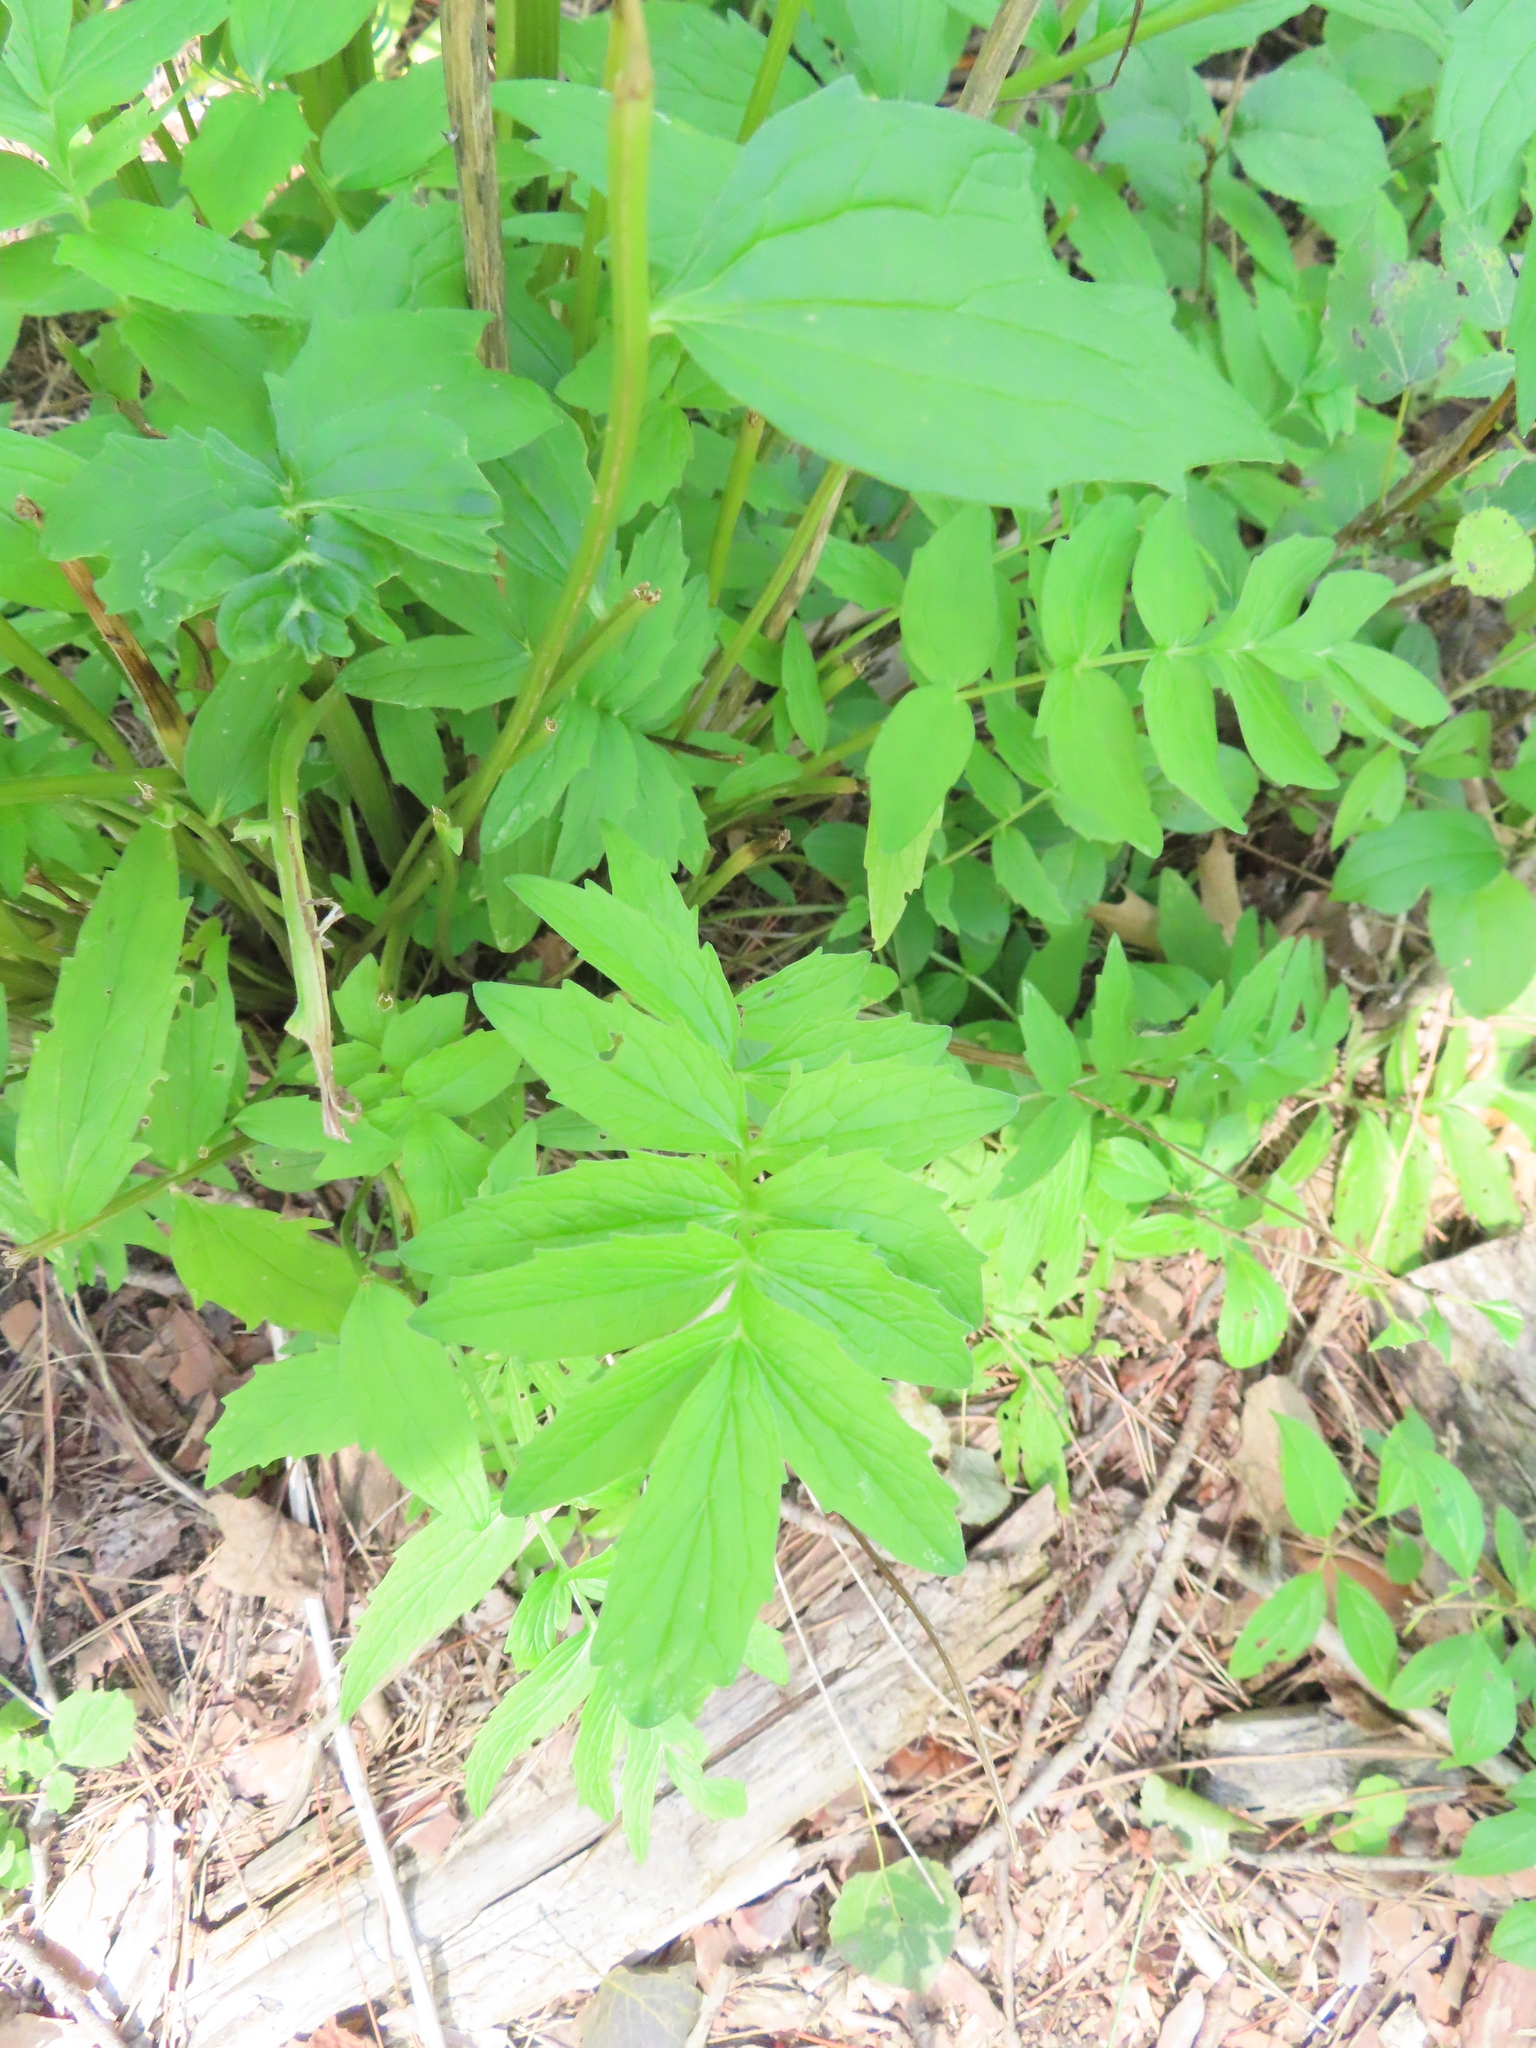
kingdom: Plantae
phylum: Tracheophyta
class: Magnoliopsida
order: Dipsacales
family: Caprifoliaceae
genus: Valeriana
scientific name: Valeriana officinalis
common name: Common valerian
